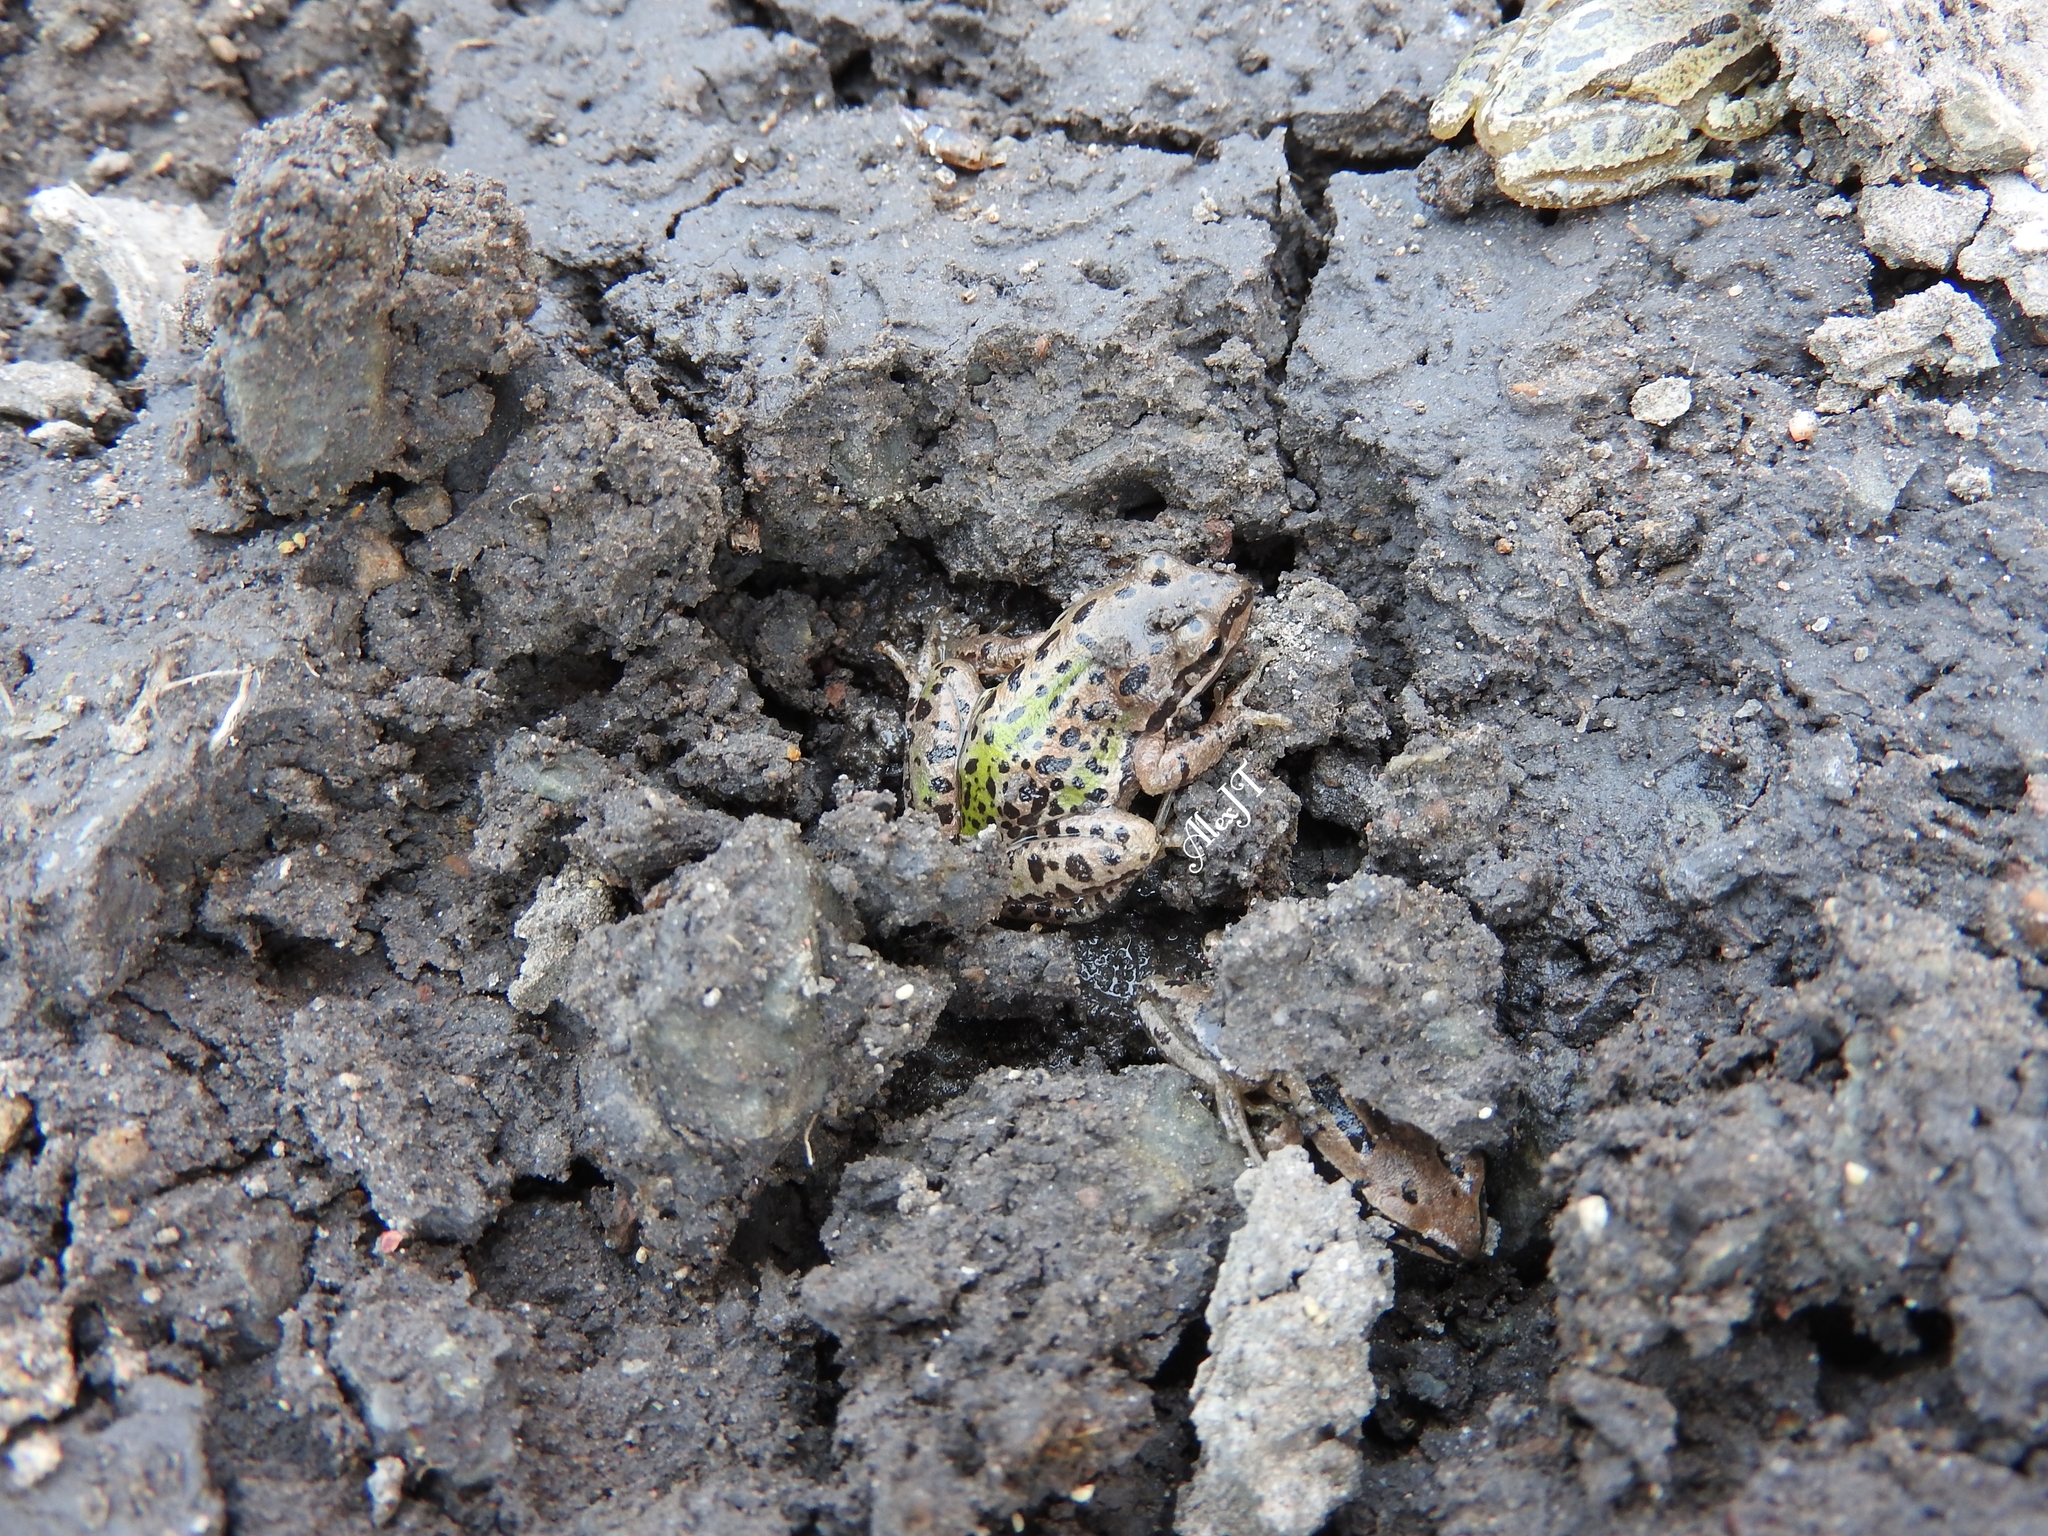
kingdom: Animalia
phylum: Chordata
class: Amphibia
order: Anura
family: Hylidae
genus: Dryophytes
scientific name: Dryophytes eximius
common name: Mountain treefrog
